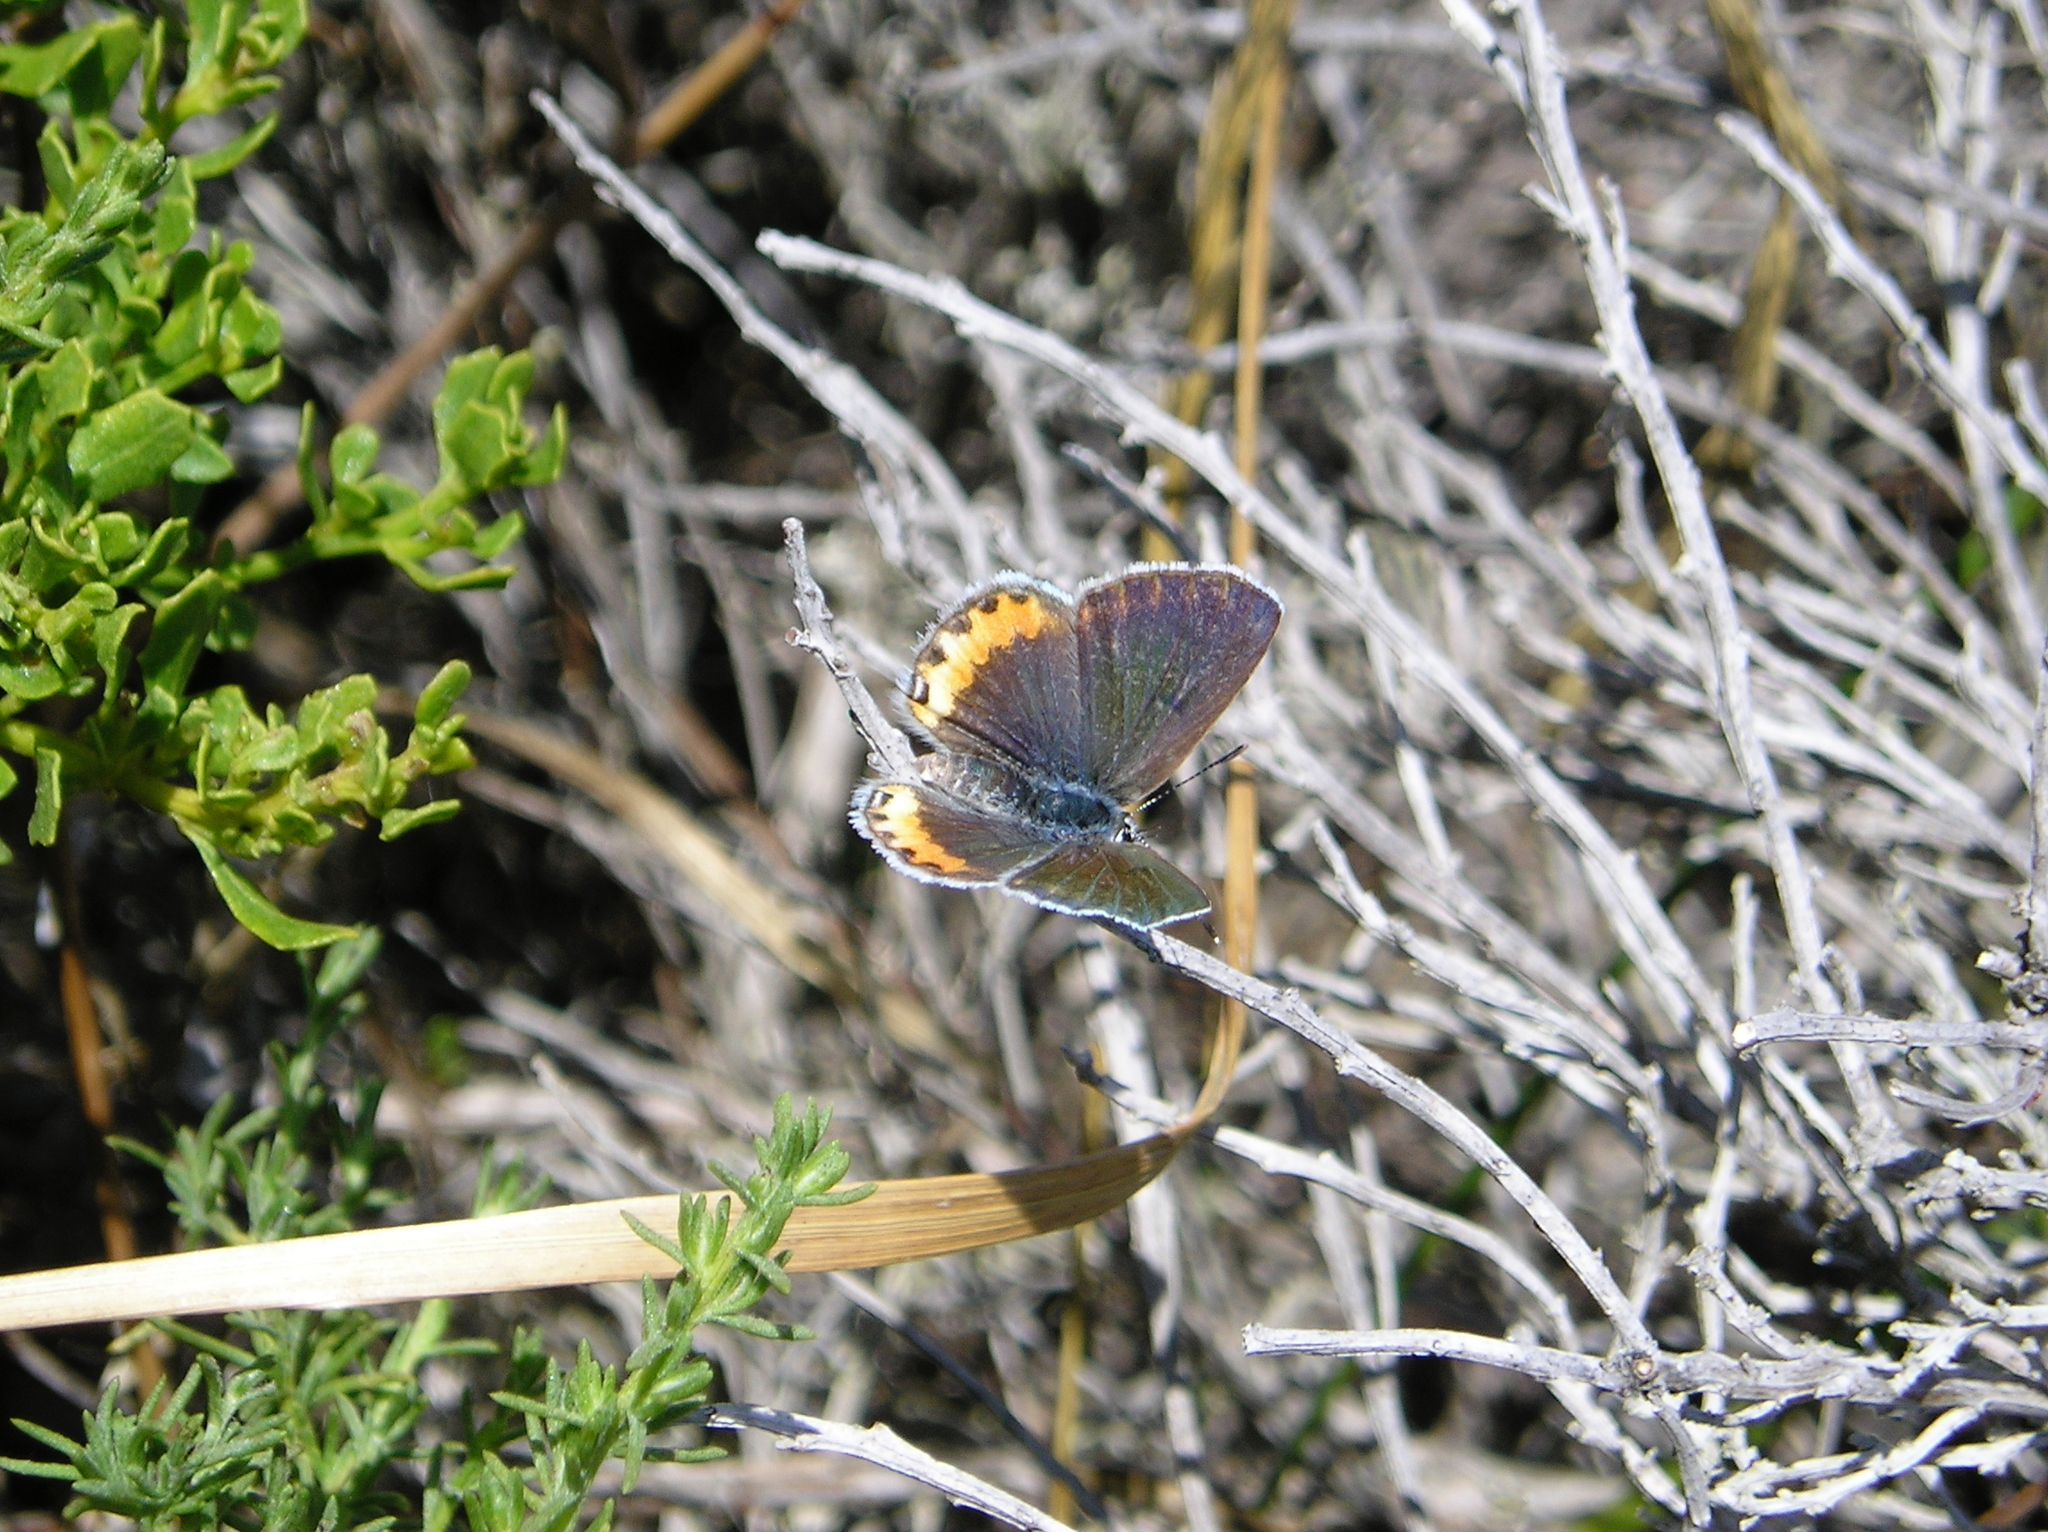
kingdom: Animalia
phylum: Arthropoda
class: Insecta
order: Lepidoptera
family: Lycaenidae
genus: Icaricia
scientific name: Icaricia acmon
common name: Acmon blue
